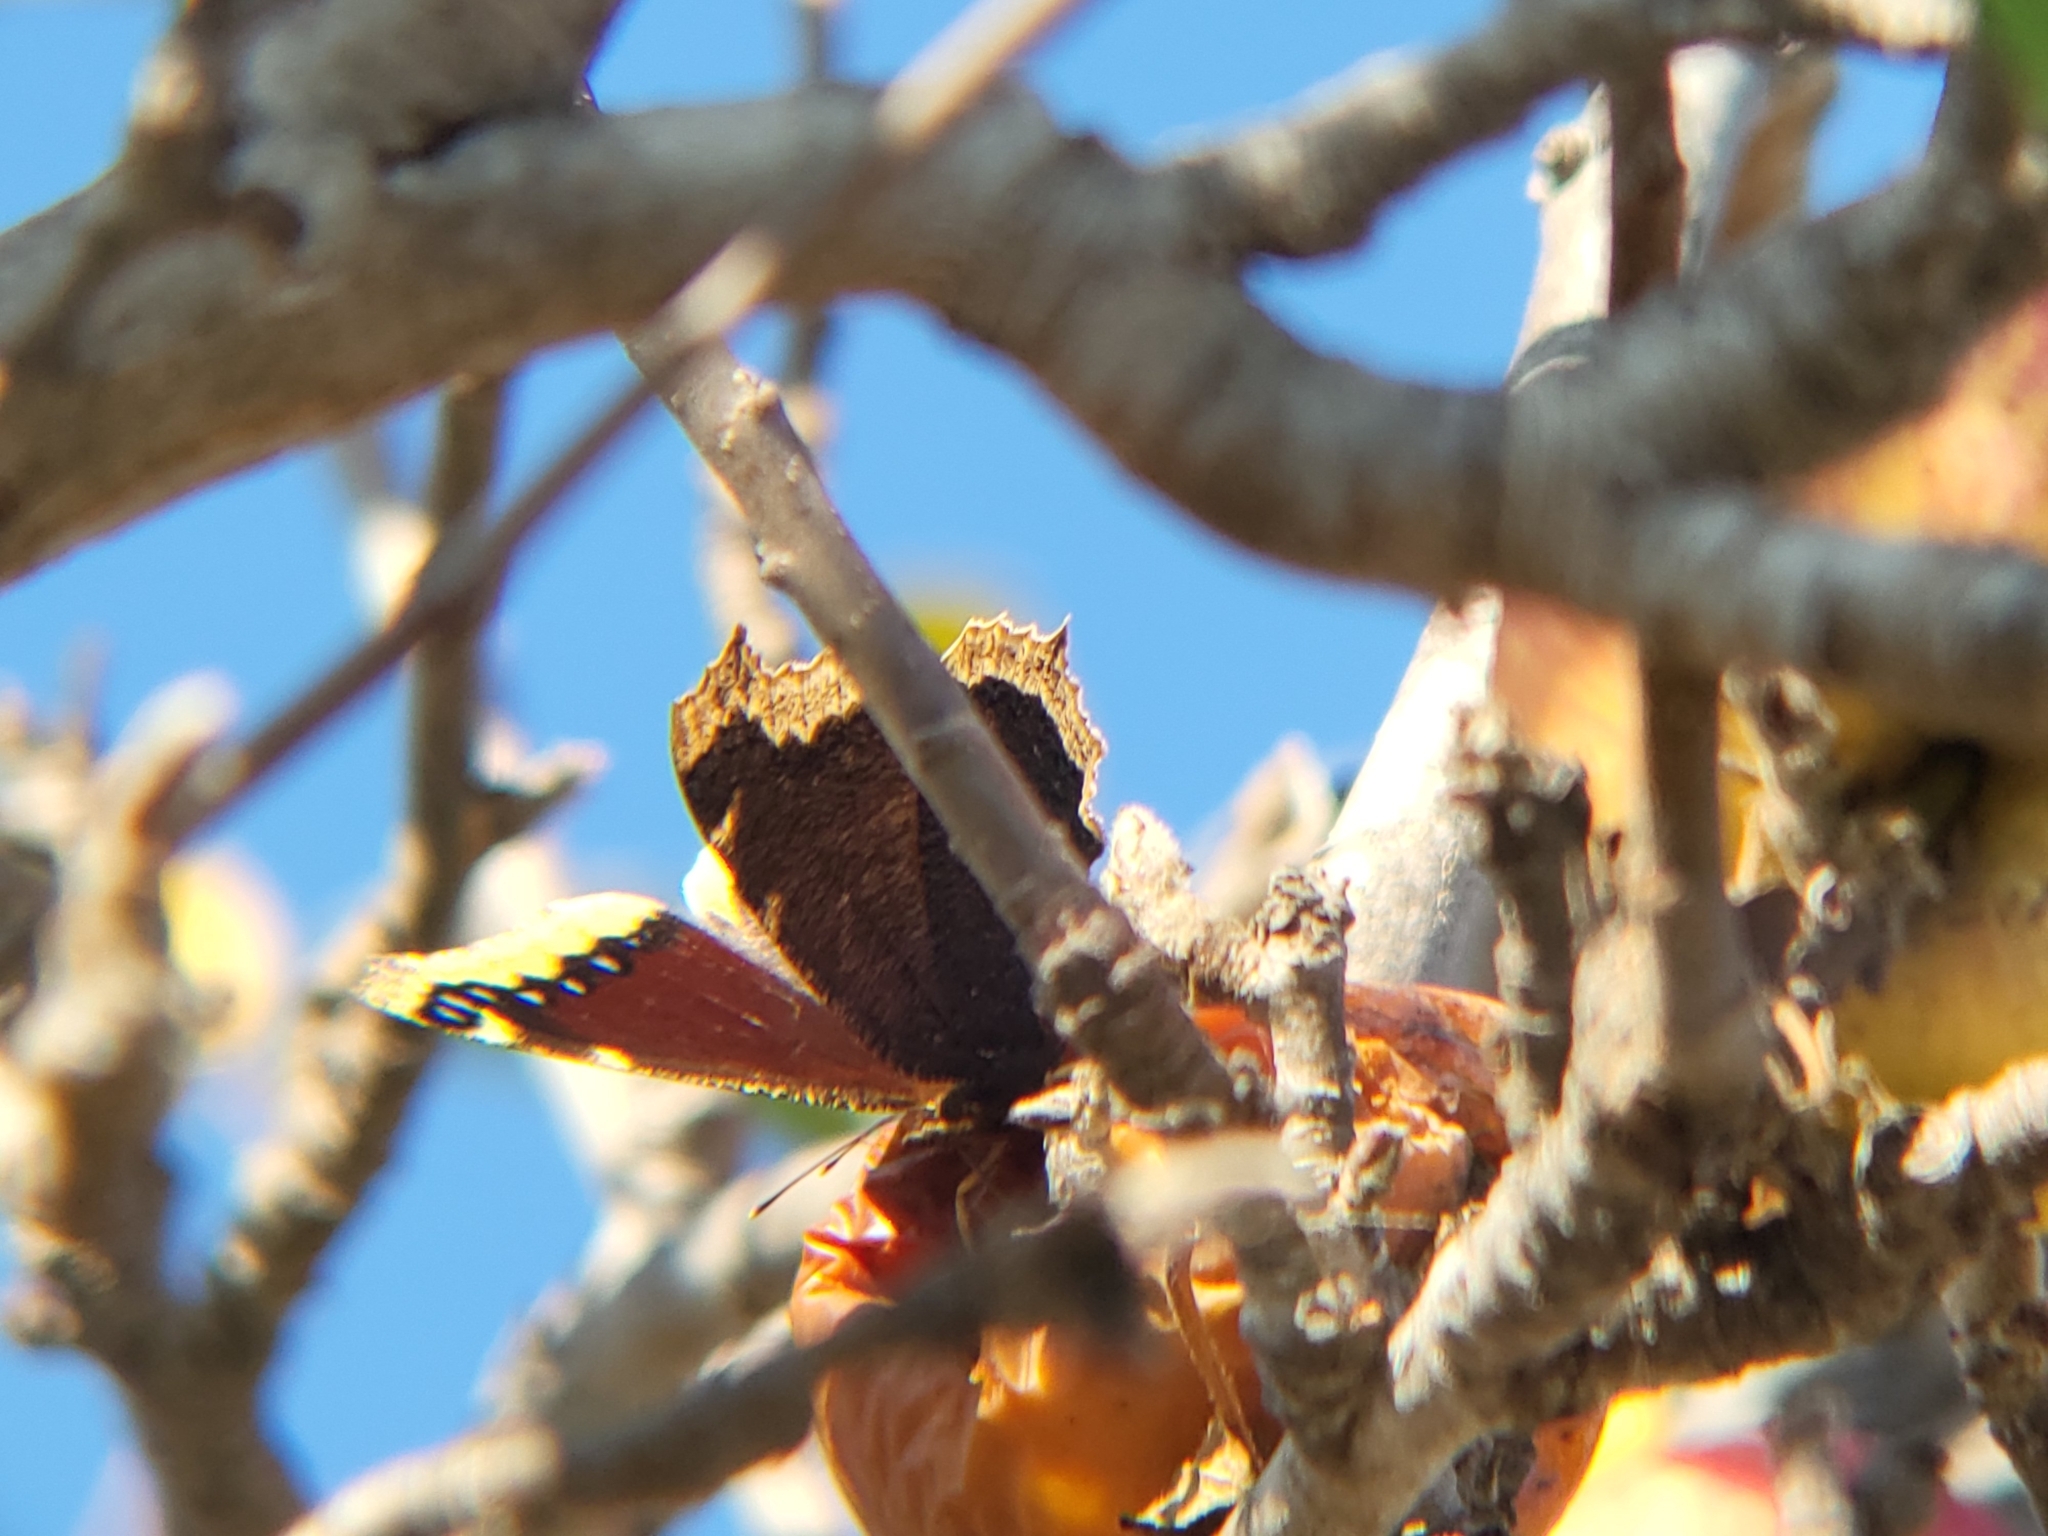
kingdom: Animalia
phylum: Arthropoda
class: Insecta
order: Lepidoptera
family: Nymphalidae
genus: Nymphalis
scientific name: Nymphalis antiopa
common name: Camberwell beauty
